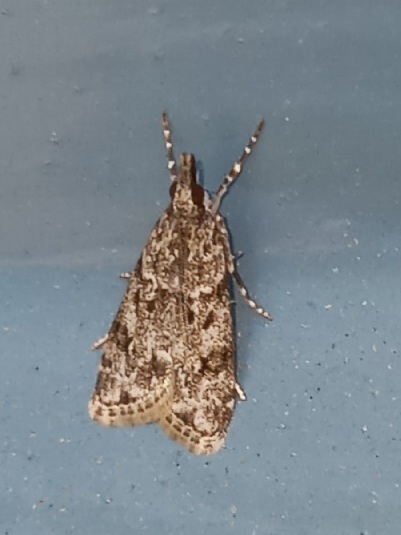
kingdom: Animalia
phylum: Arthropoda
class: Insecta
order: Lepidoptera
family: Crambidae
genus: Eudonia
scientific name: Eudonia heterosalis
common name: Mcdunnough's eudonia
